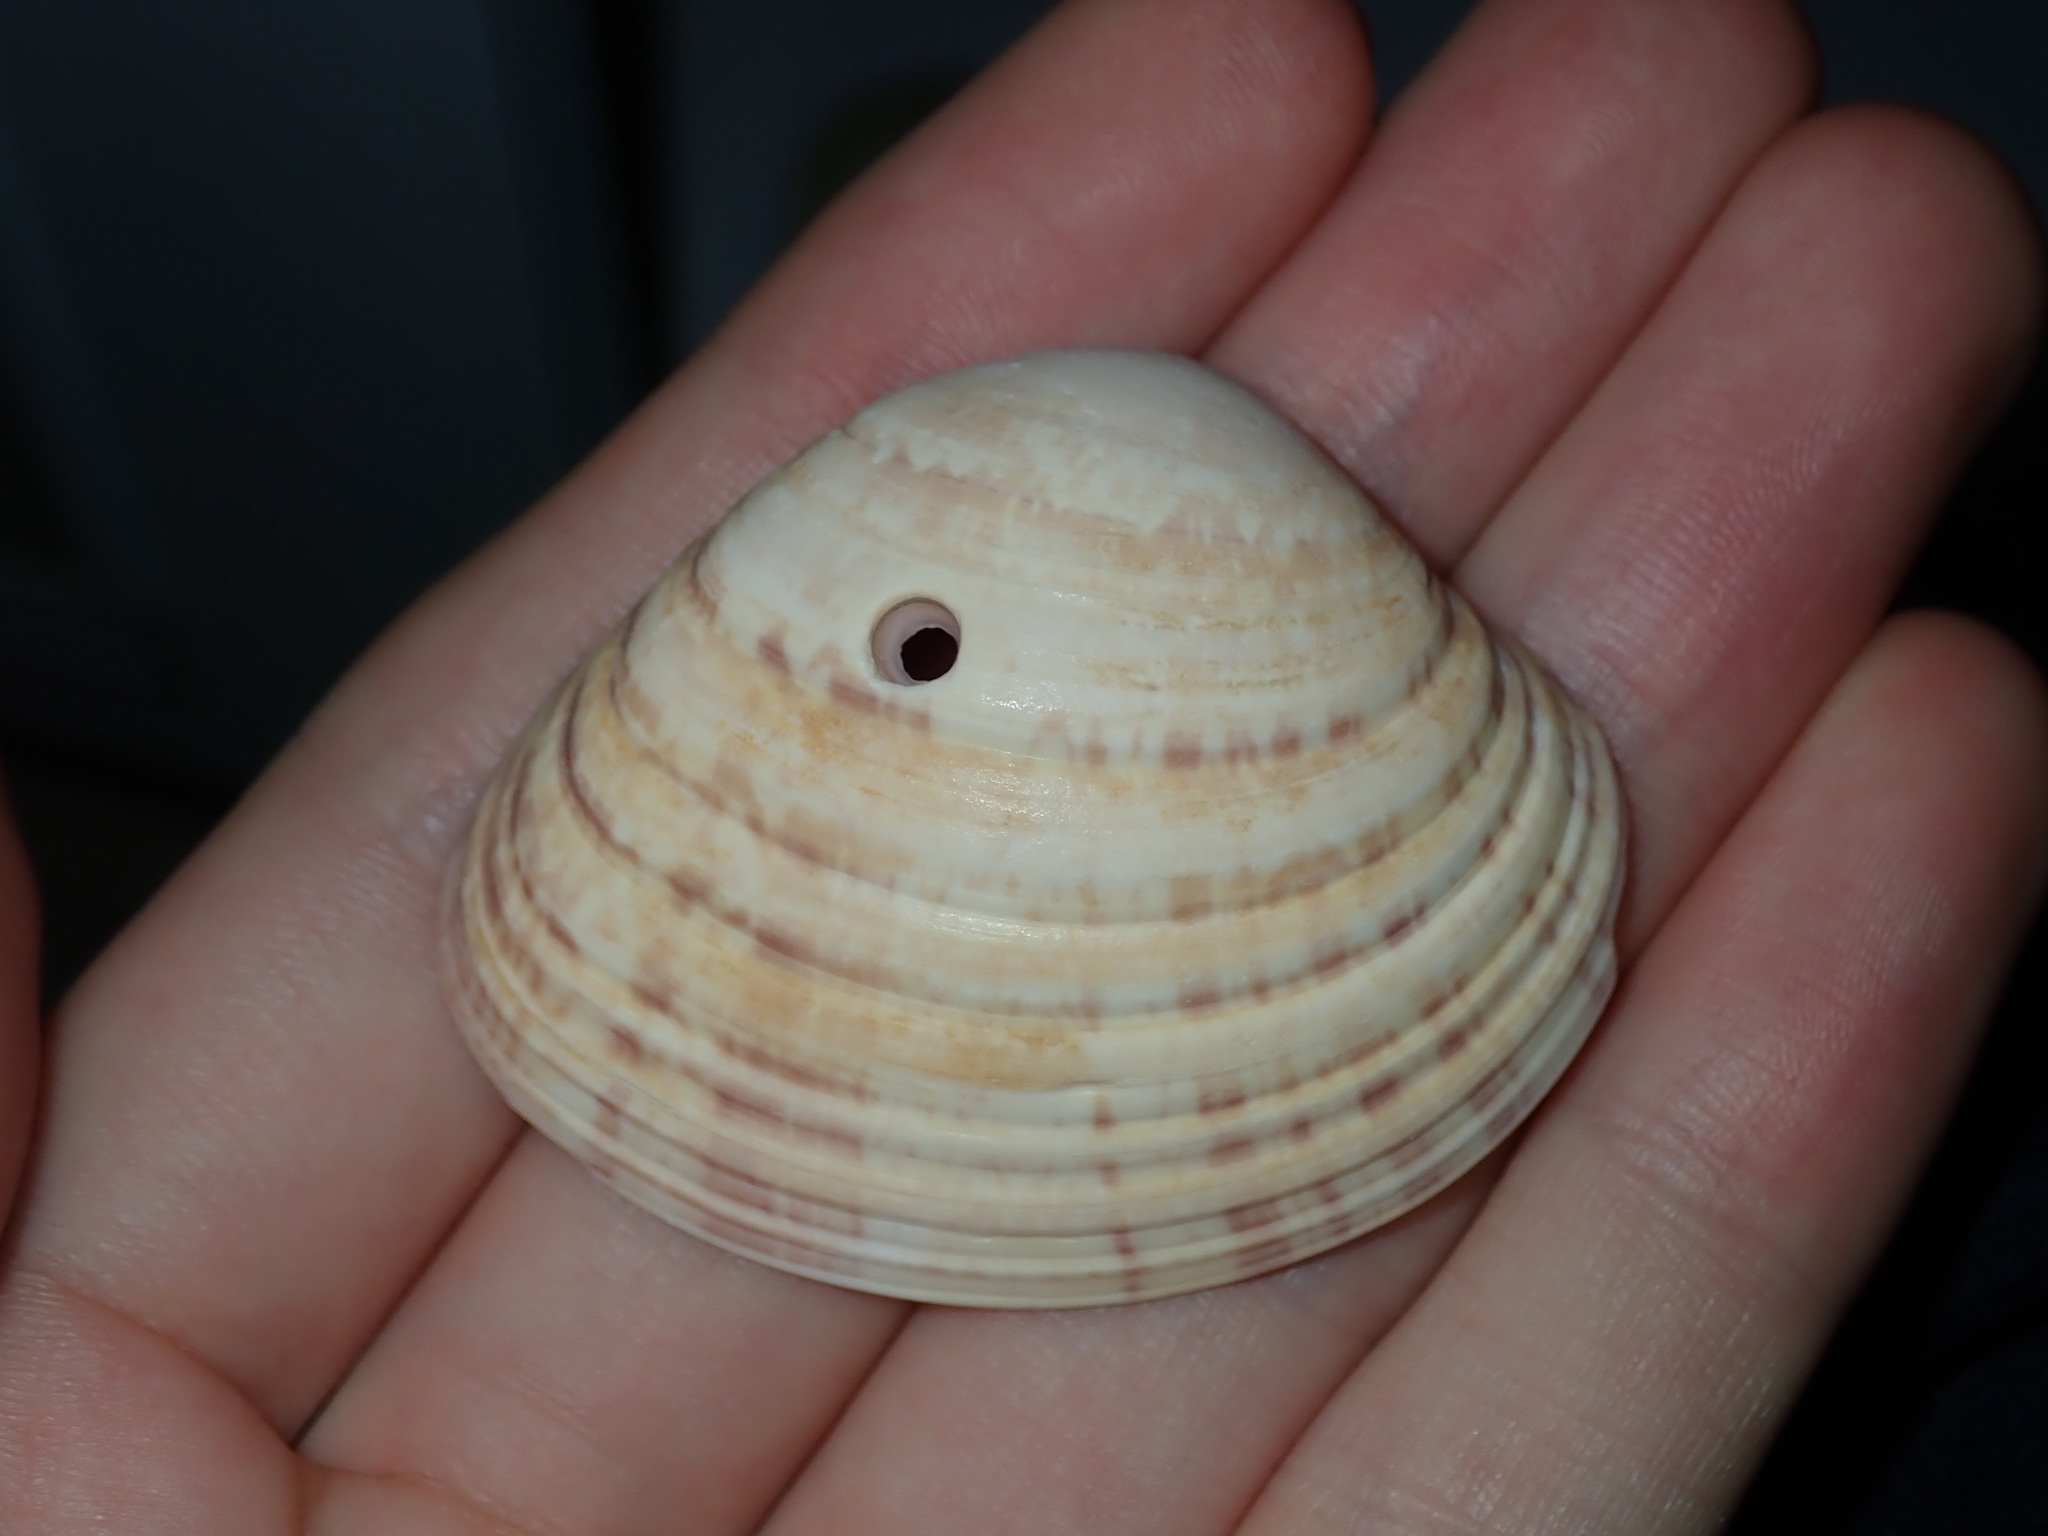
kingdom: Animalia
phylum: Mollusca
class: Bivalvia
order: Venerida
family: Veneridae
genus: Callista
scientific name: Callista disrupta
